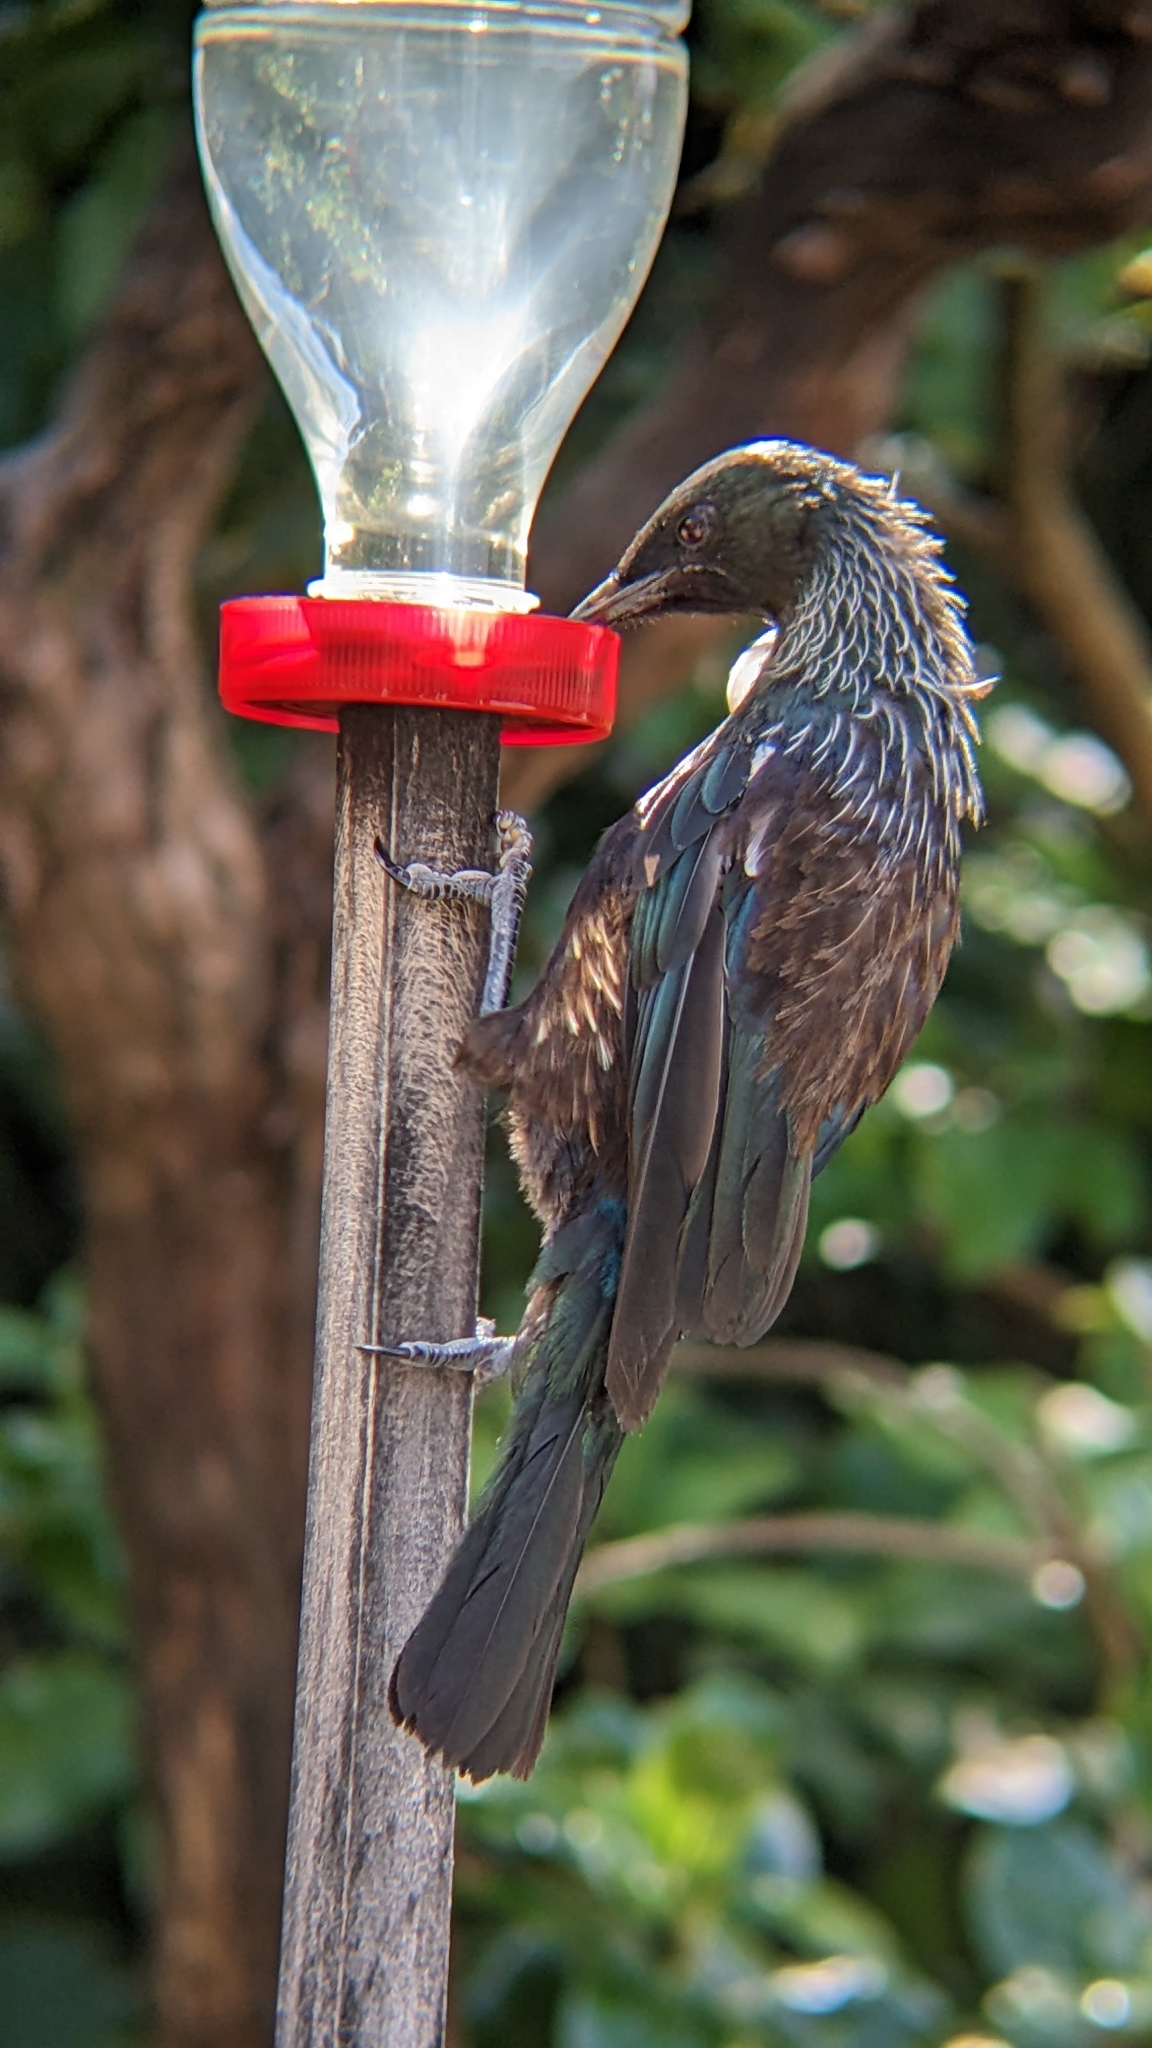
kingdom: Animalia
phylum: Chordata
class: Aves
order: Passeriformes
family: Meliphagidae
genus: Prosthemadera
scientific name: Prosthemadera novaeseelandiae
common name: Tui
